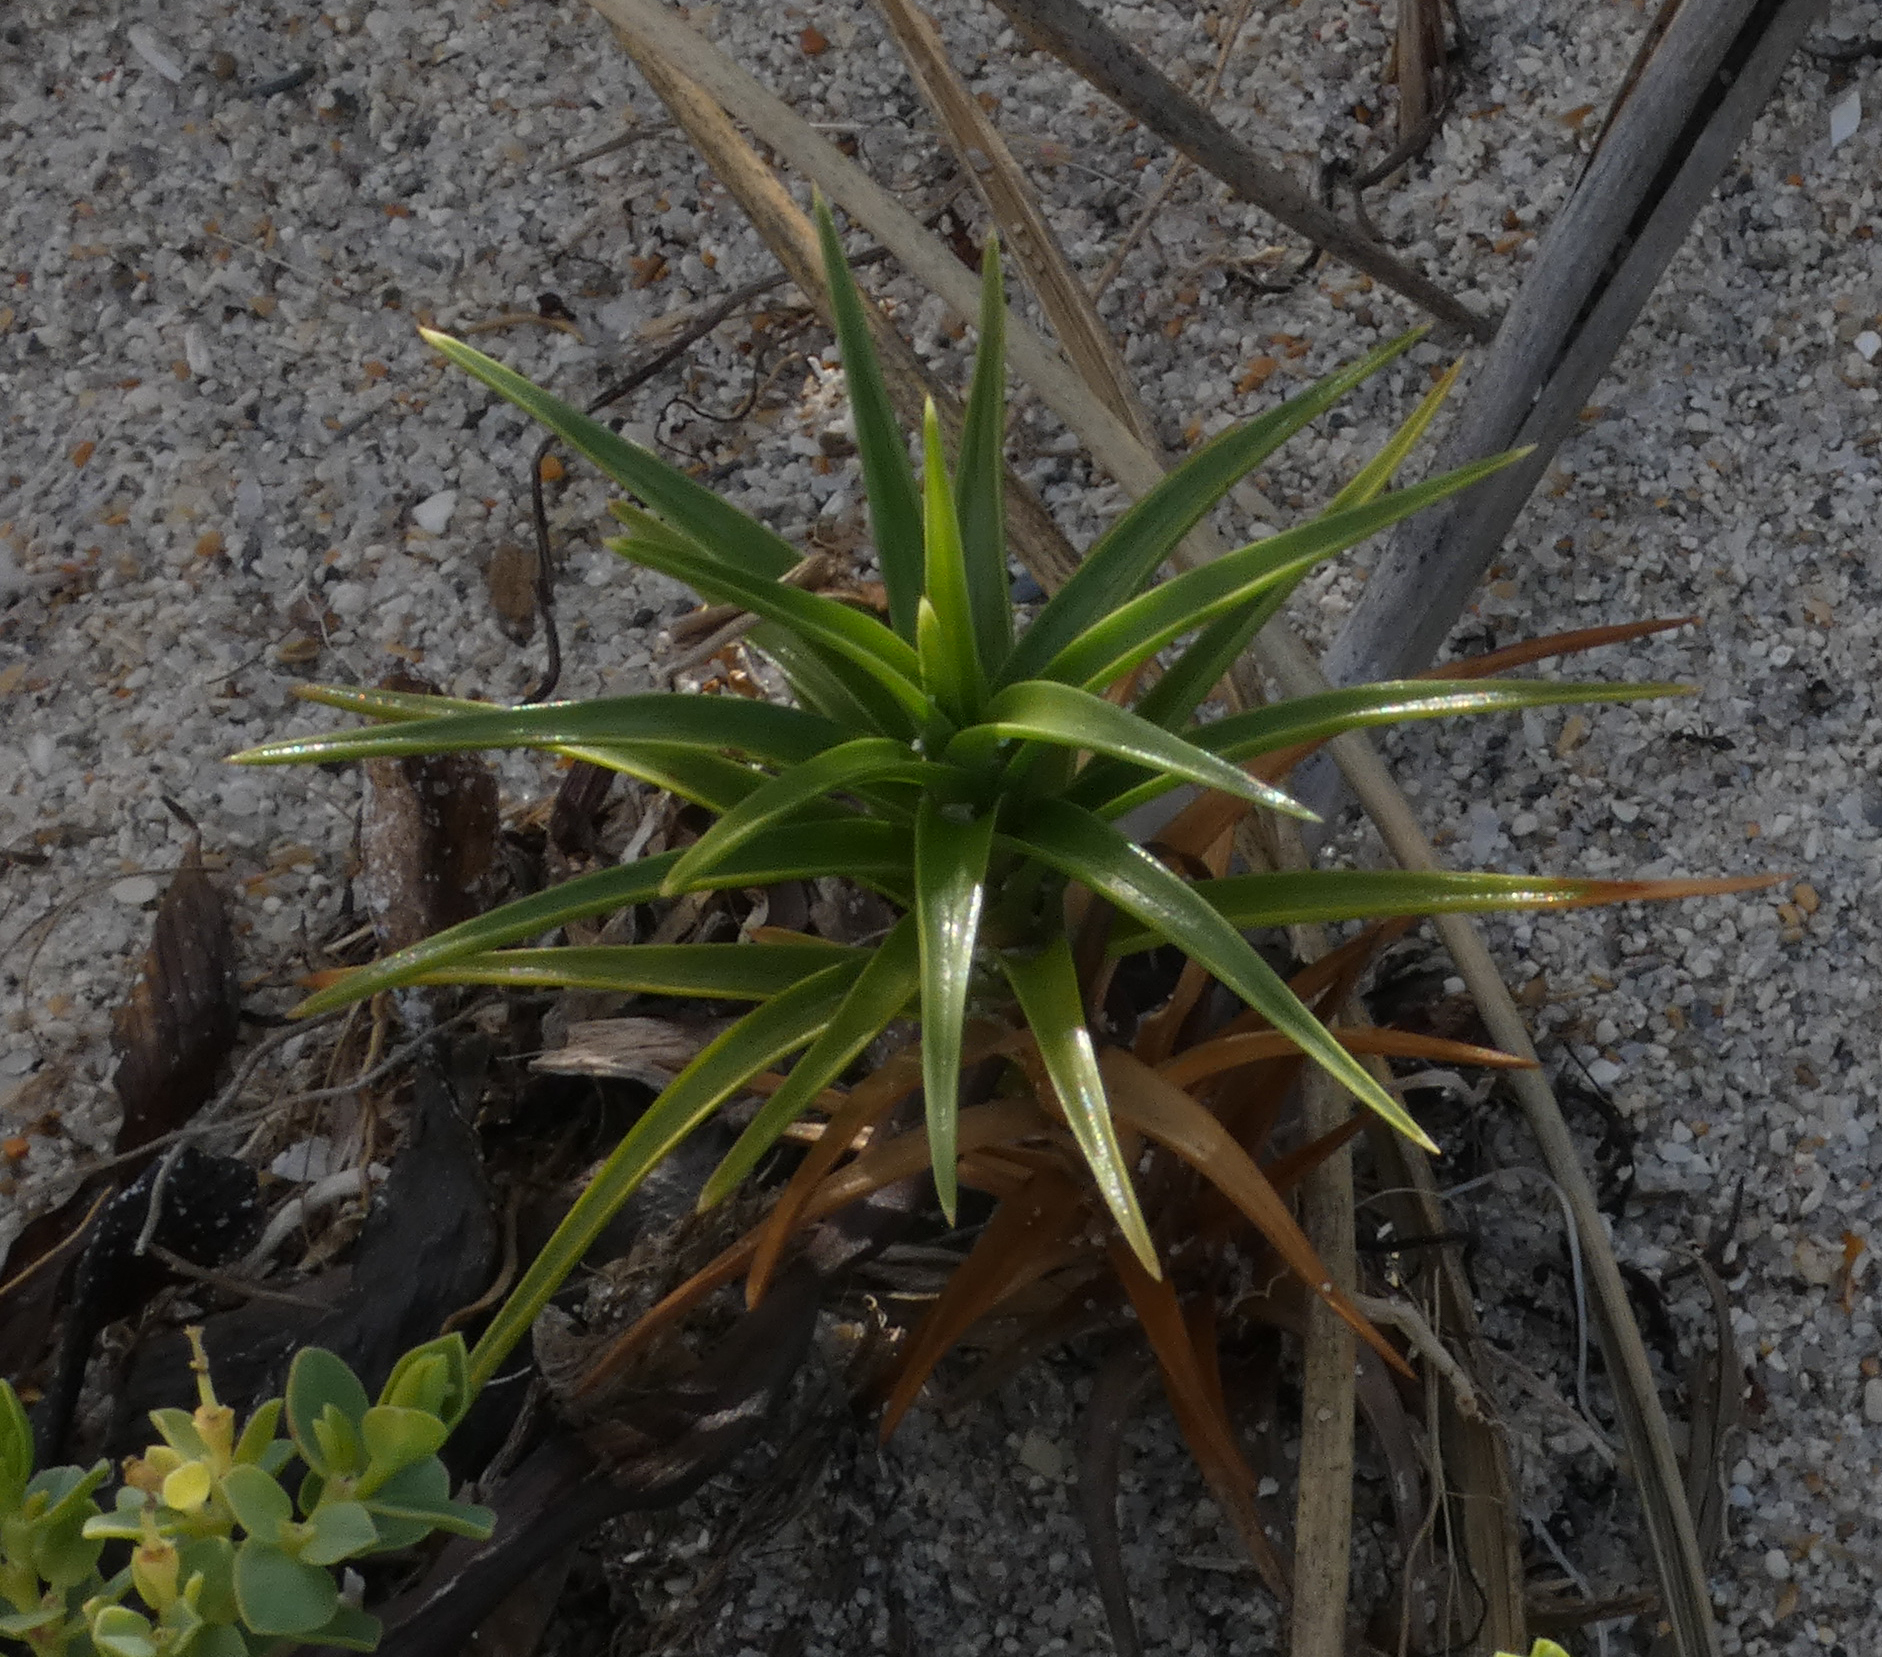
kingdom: Plantae
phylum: Tracheophyta
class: Liliopsida
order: Poales
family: Cyperaceae
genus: Cyperus
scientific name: Cyperus pedunculatus
